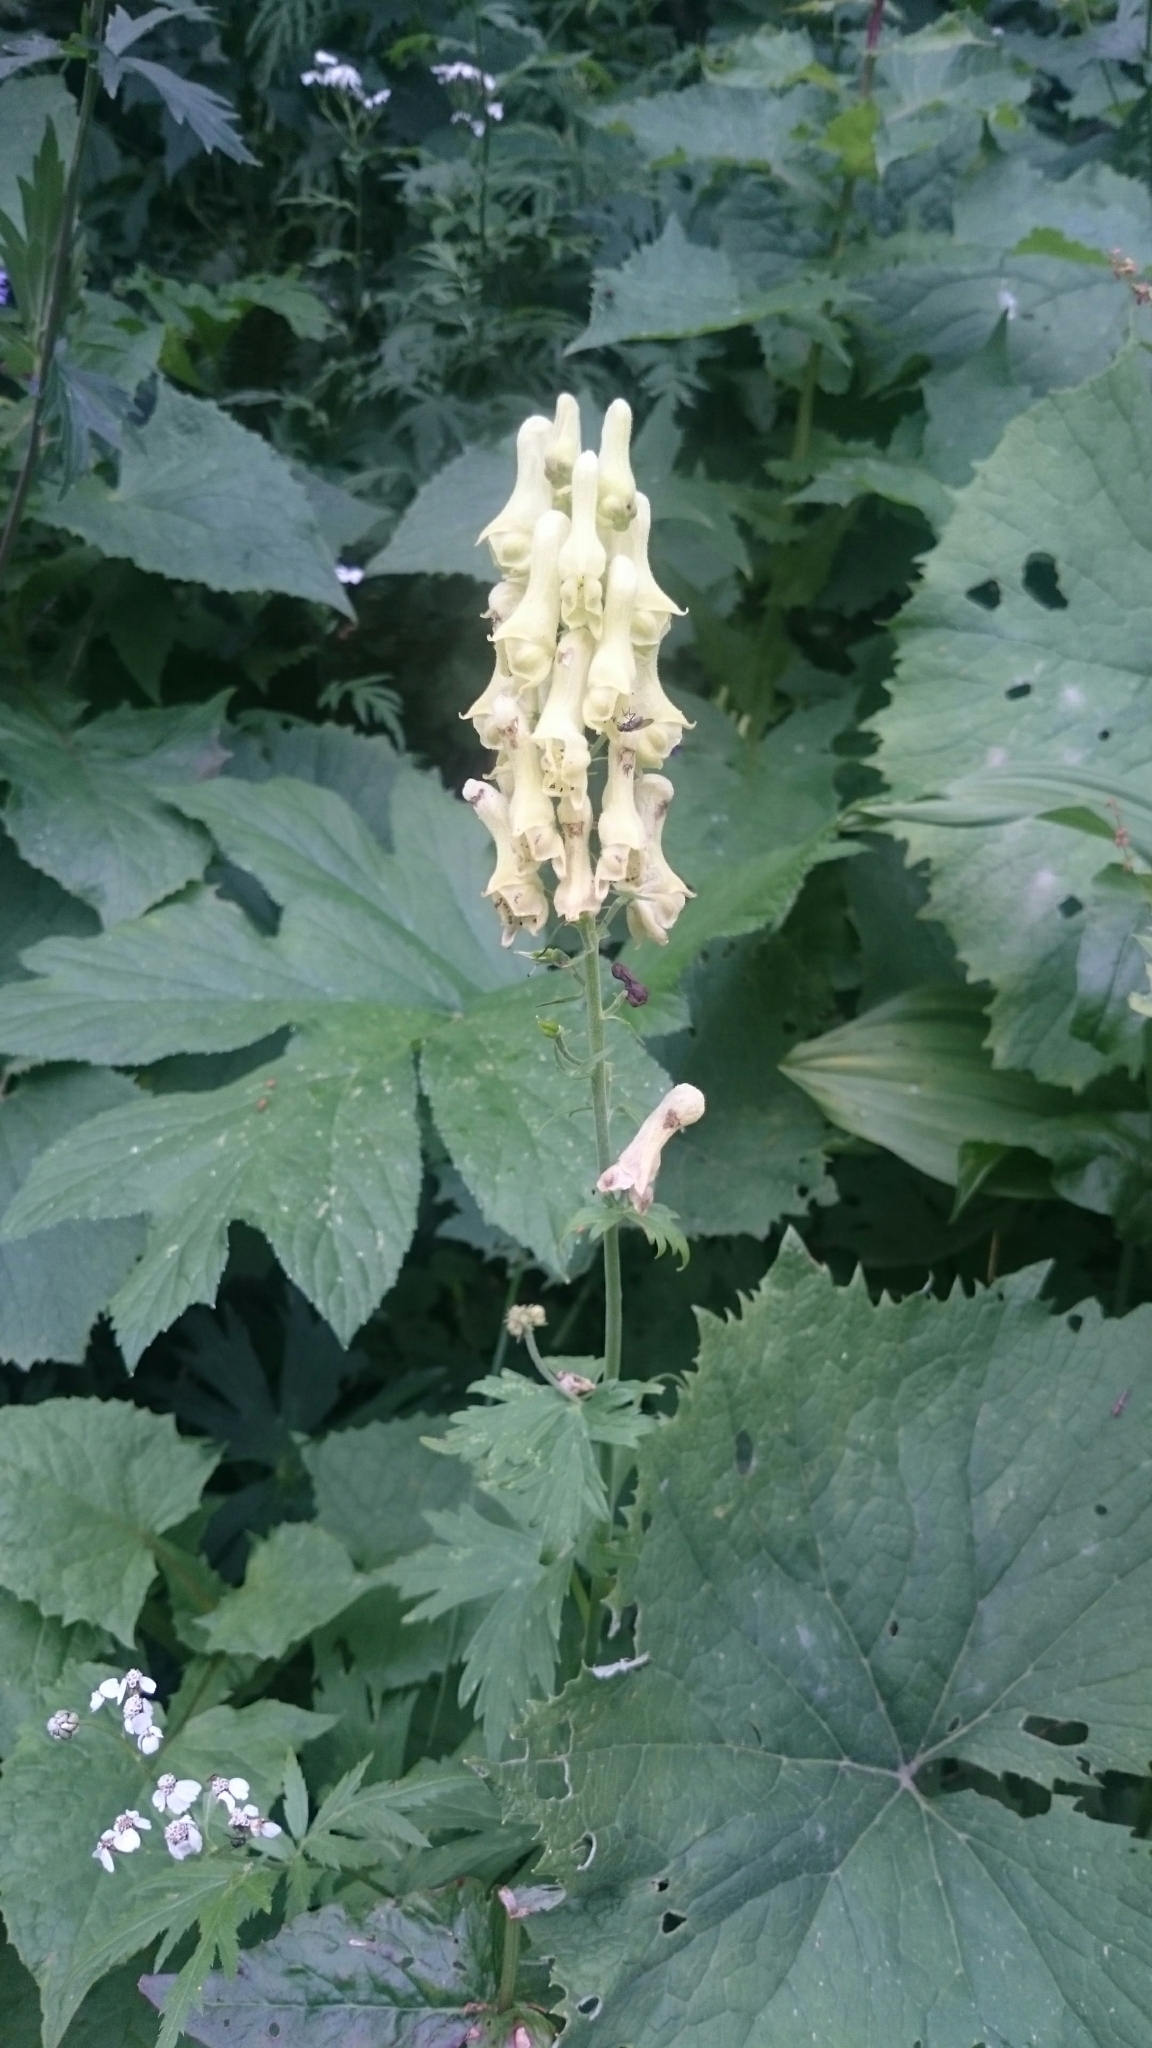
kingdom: Plantae
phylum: Tracheophyta
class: Magnoliopsida
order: Ranunculales
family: Ranunculaceae
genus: Aconitum
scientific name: Aconitum lycoctonum
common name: Wolf's-bane
